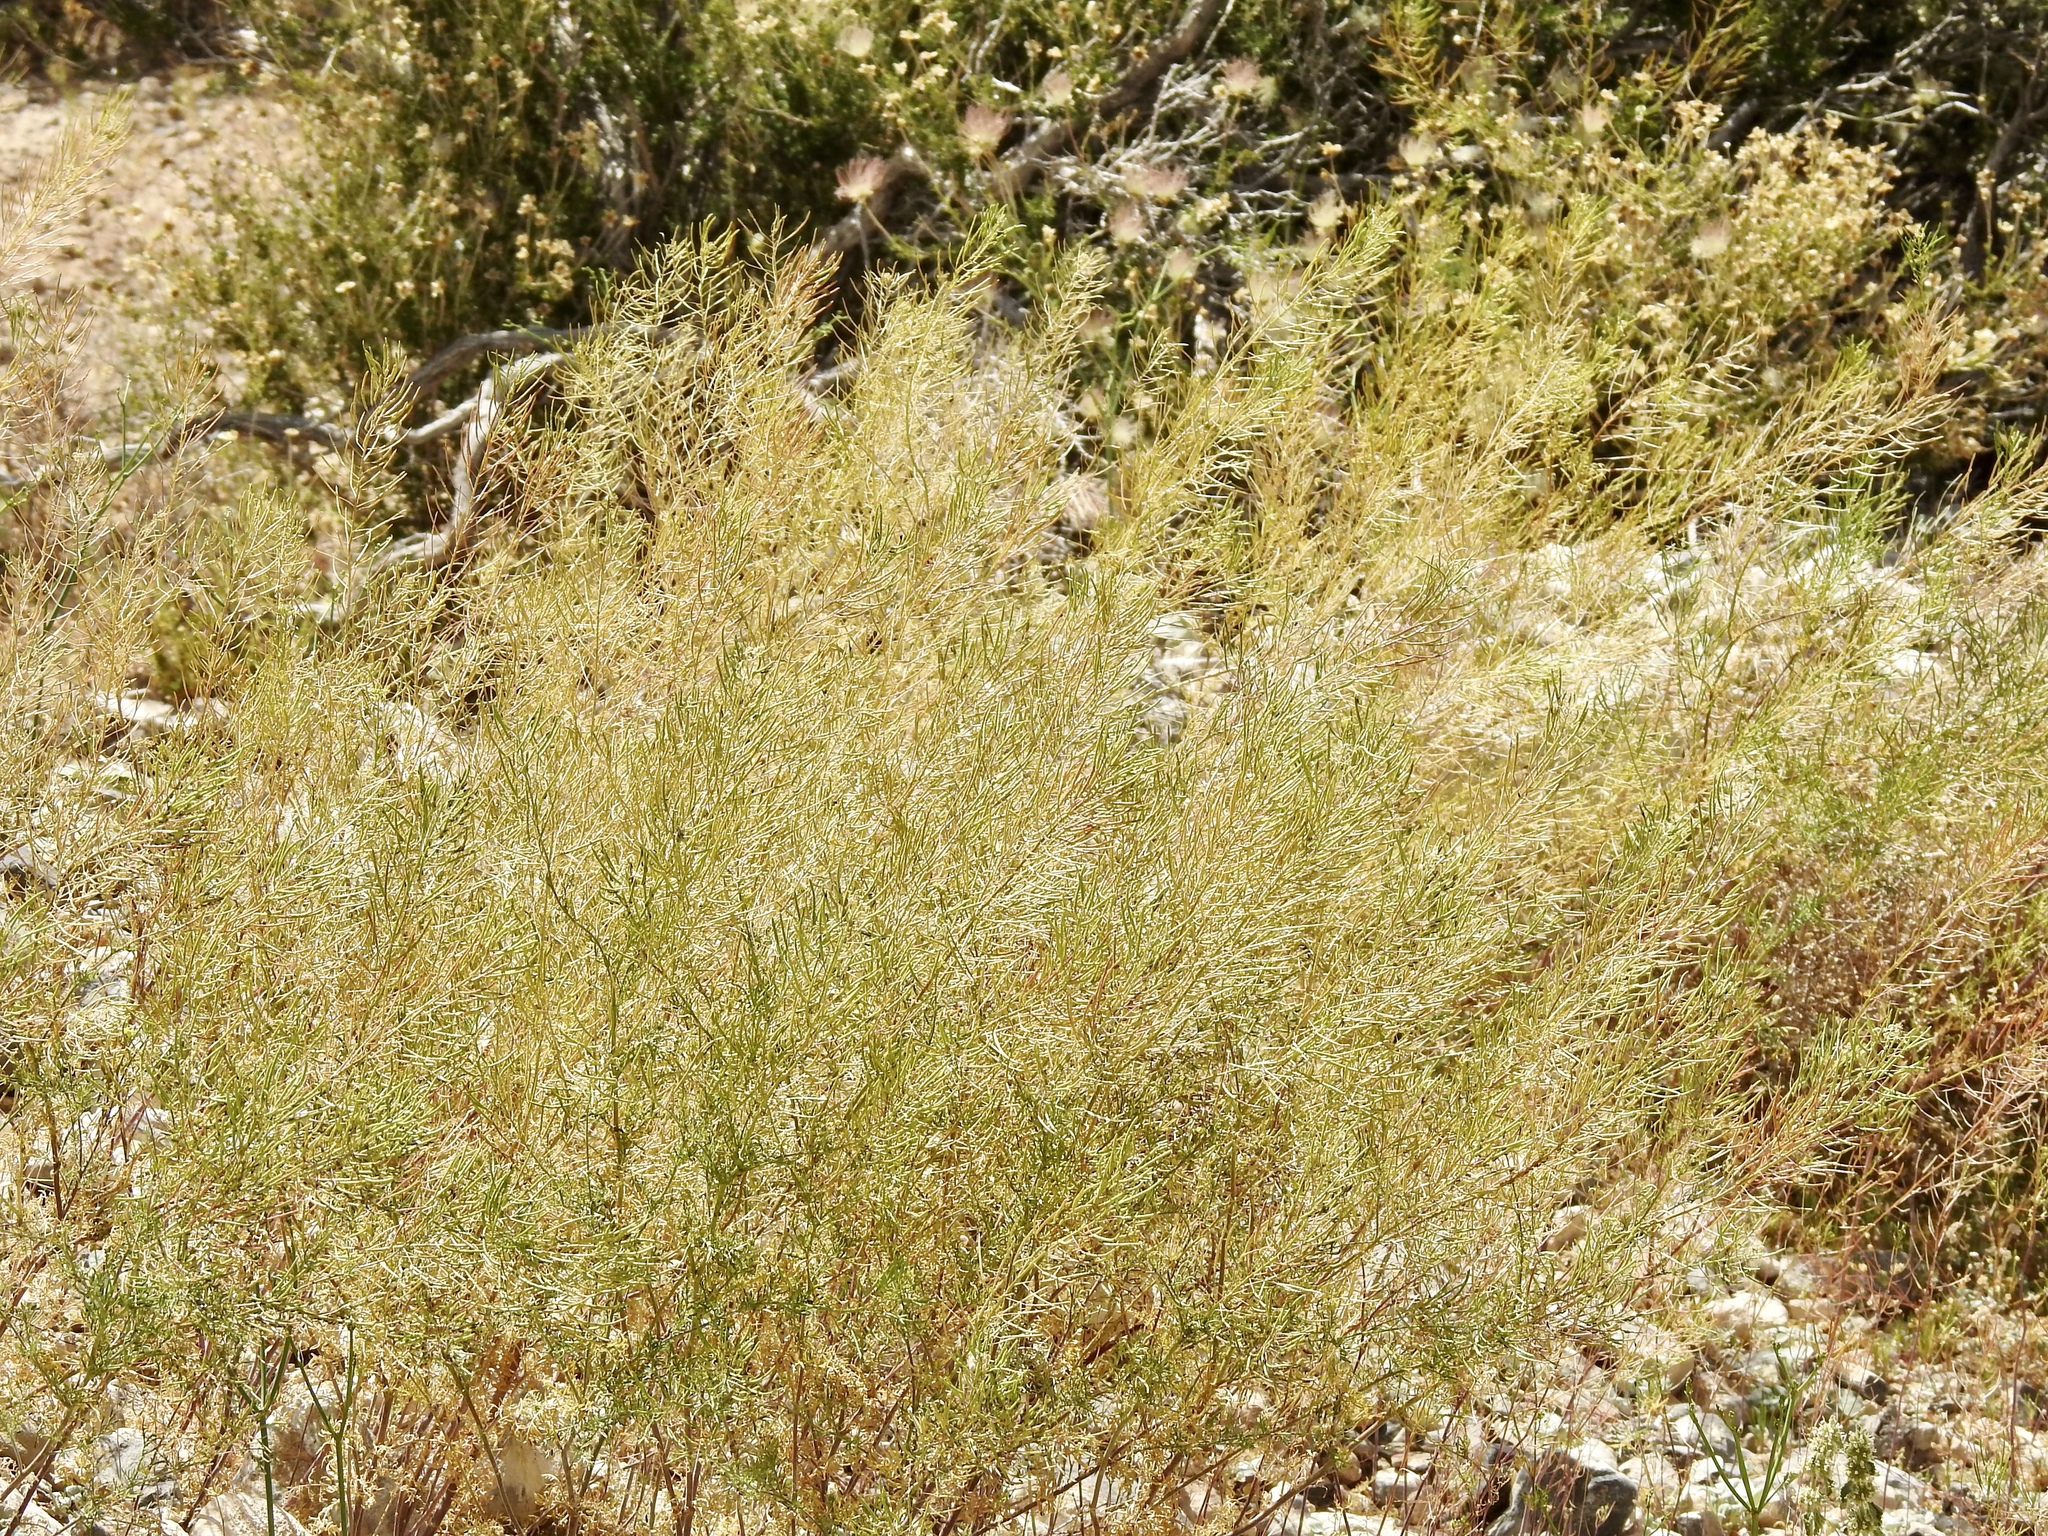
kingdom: Plantae
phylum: Tracheophyta
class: Magnoliopsida
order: Brassicales
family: Brassicaceae
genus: Sisymbrium
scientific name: Sisymbrium irio
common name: London rocket
